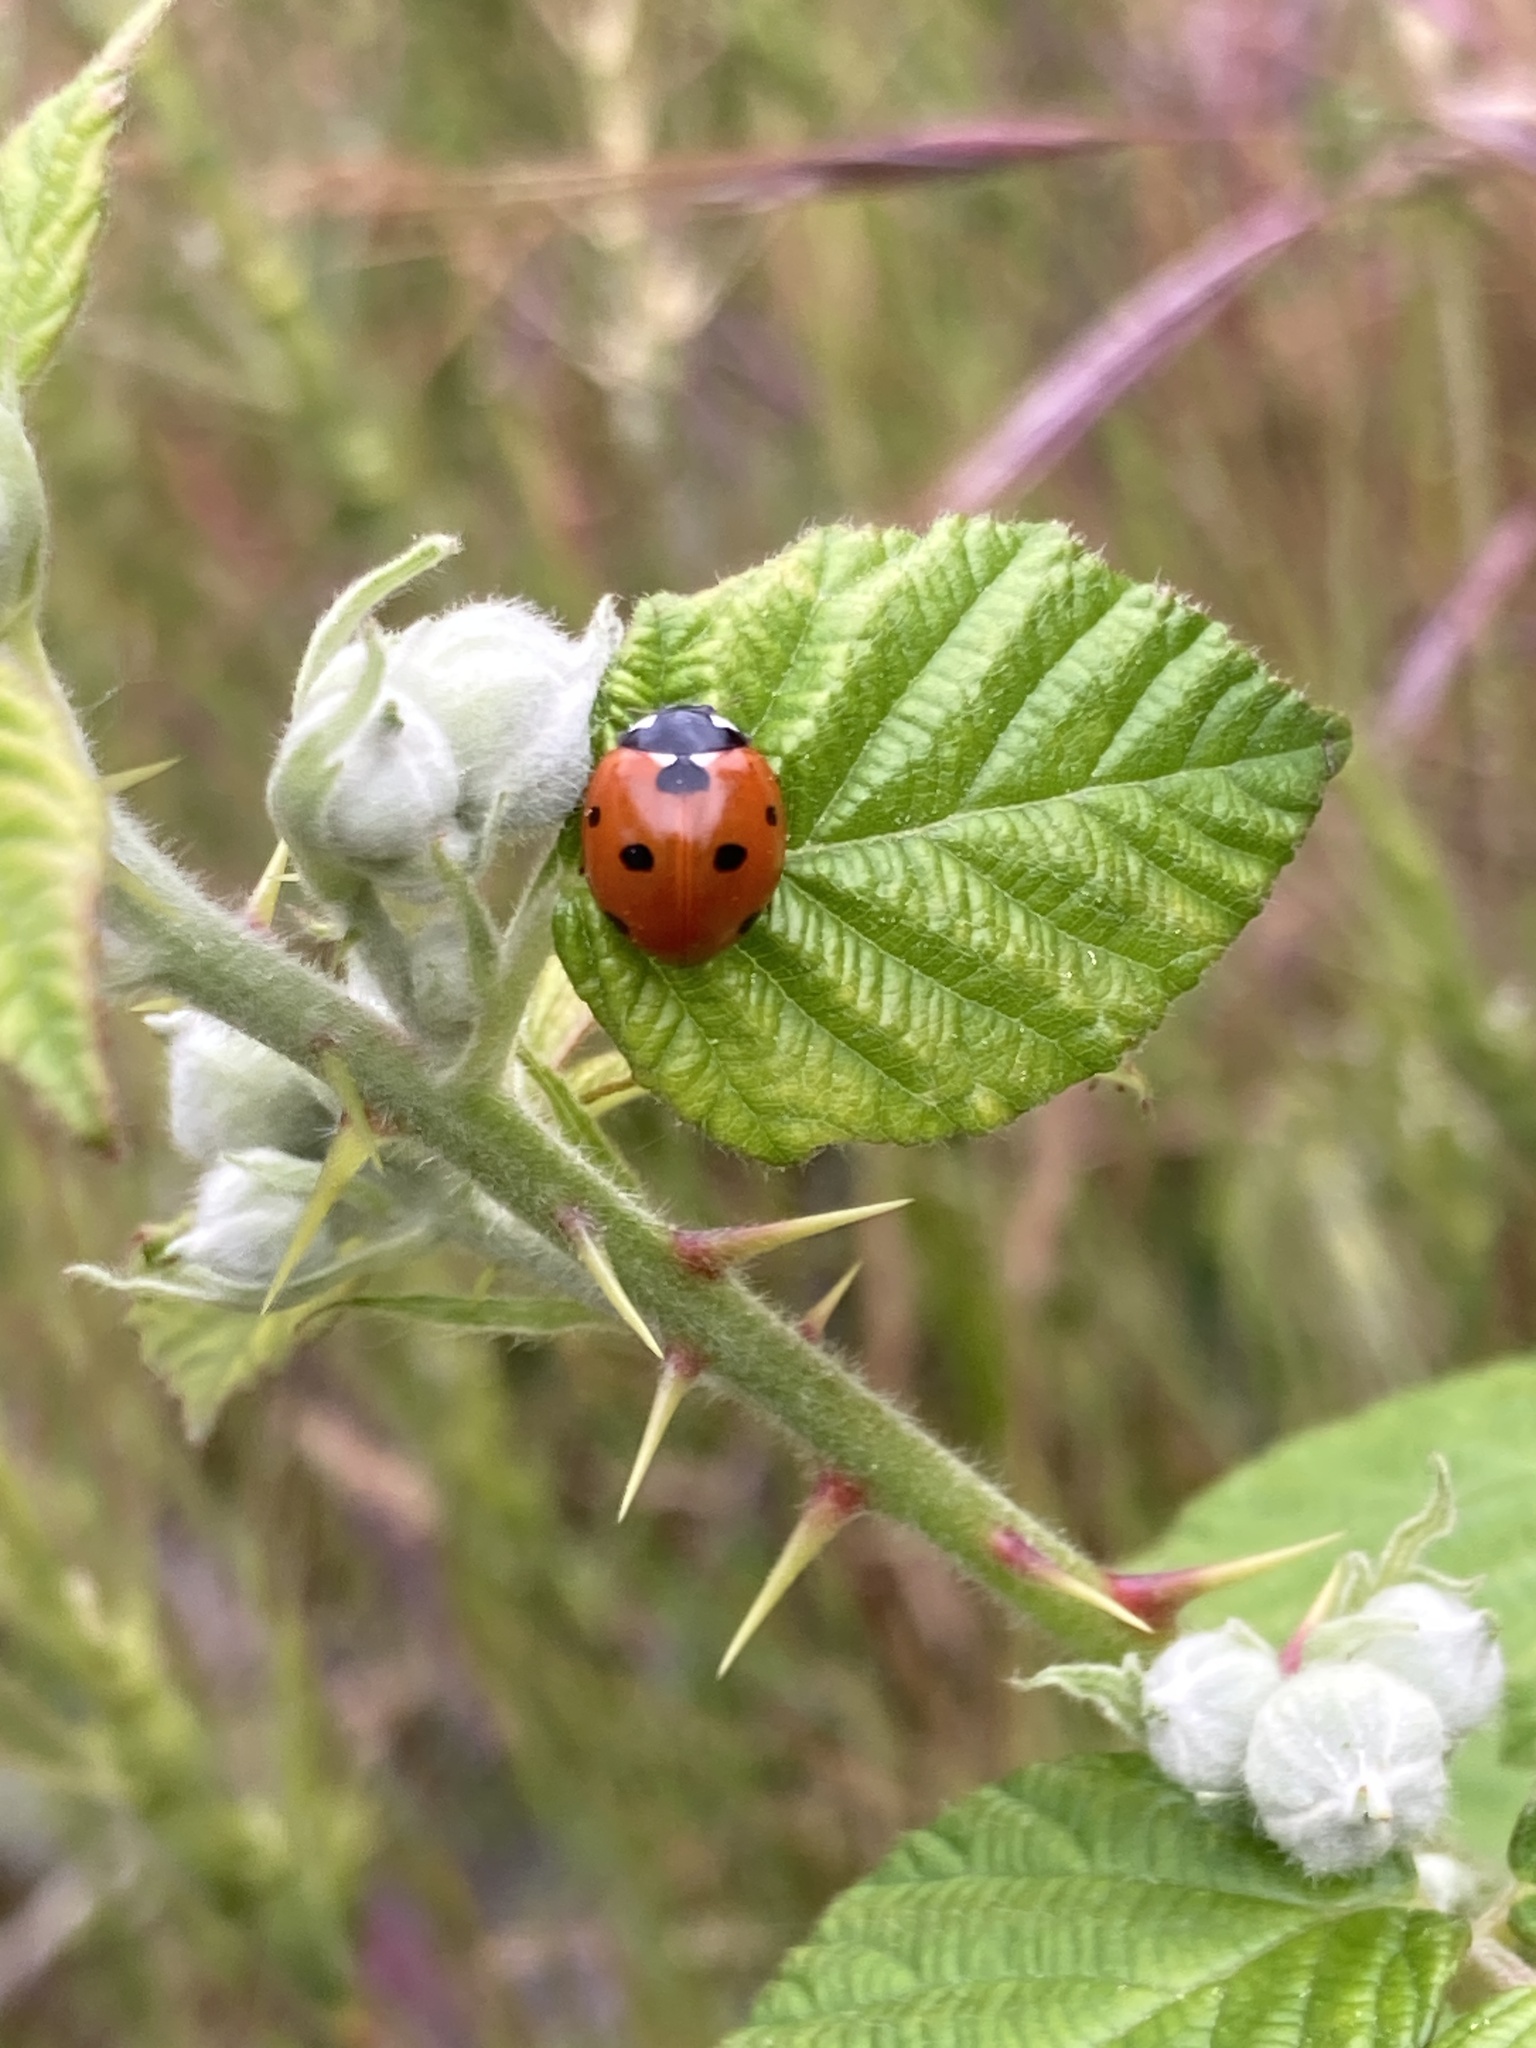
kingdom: Animalia
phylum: Arthropoda
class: Insecta
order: Coleoptera
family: Coccinellidae
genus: Coccinella
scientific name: Coccinella septempunctata
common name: Sevenspotted lady beetle
